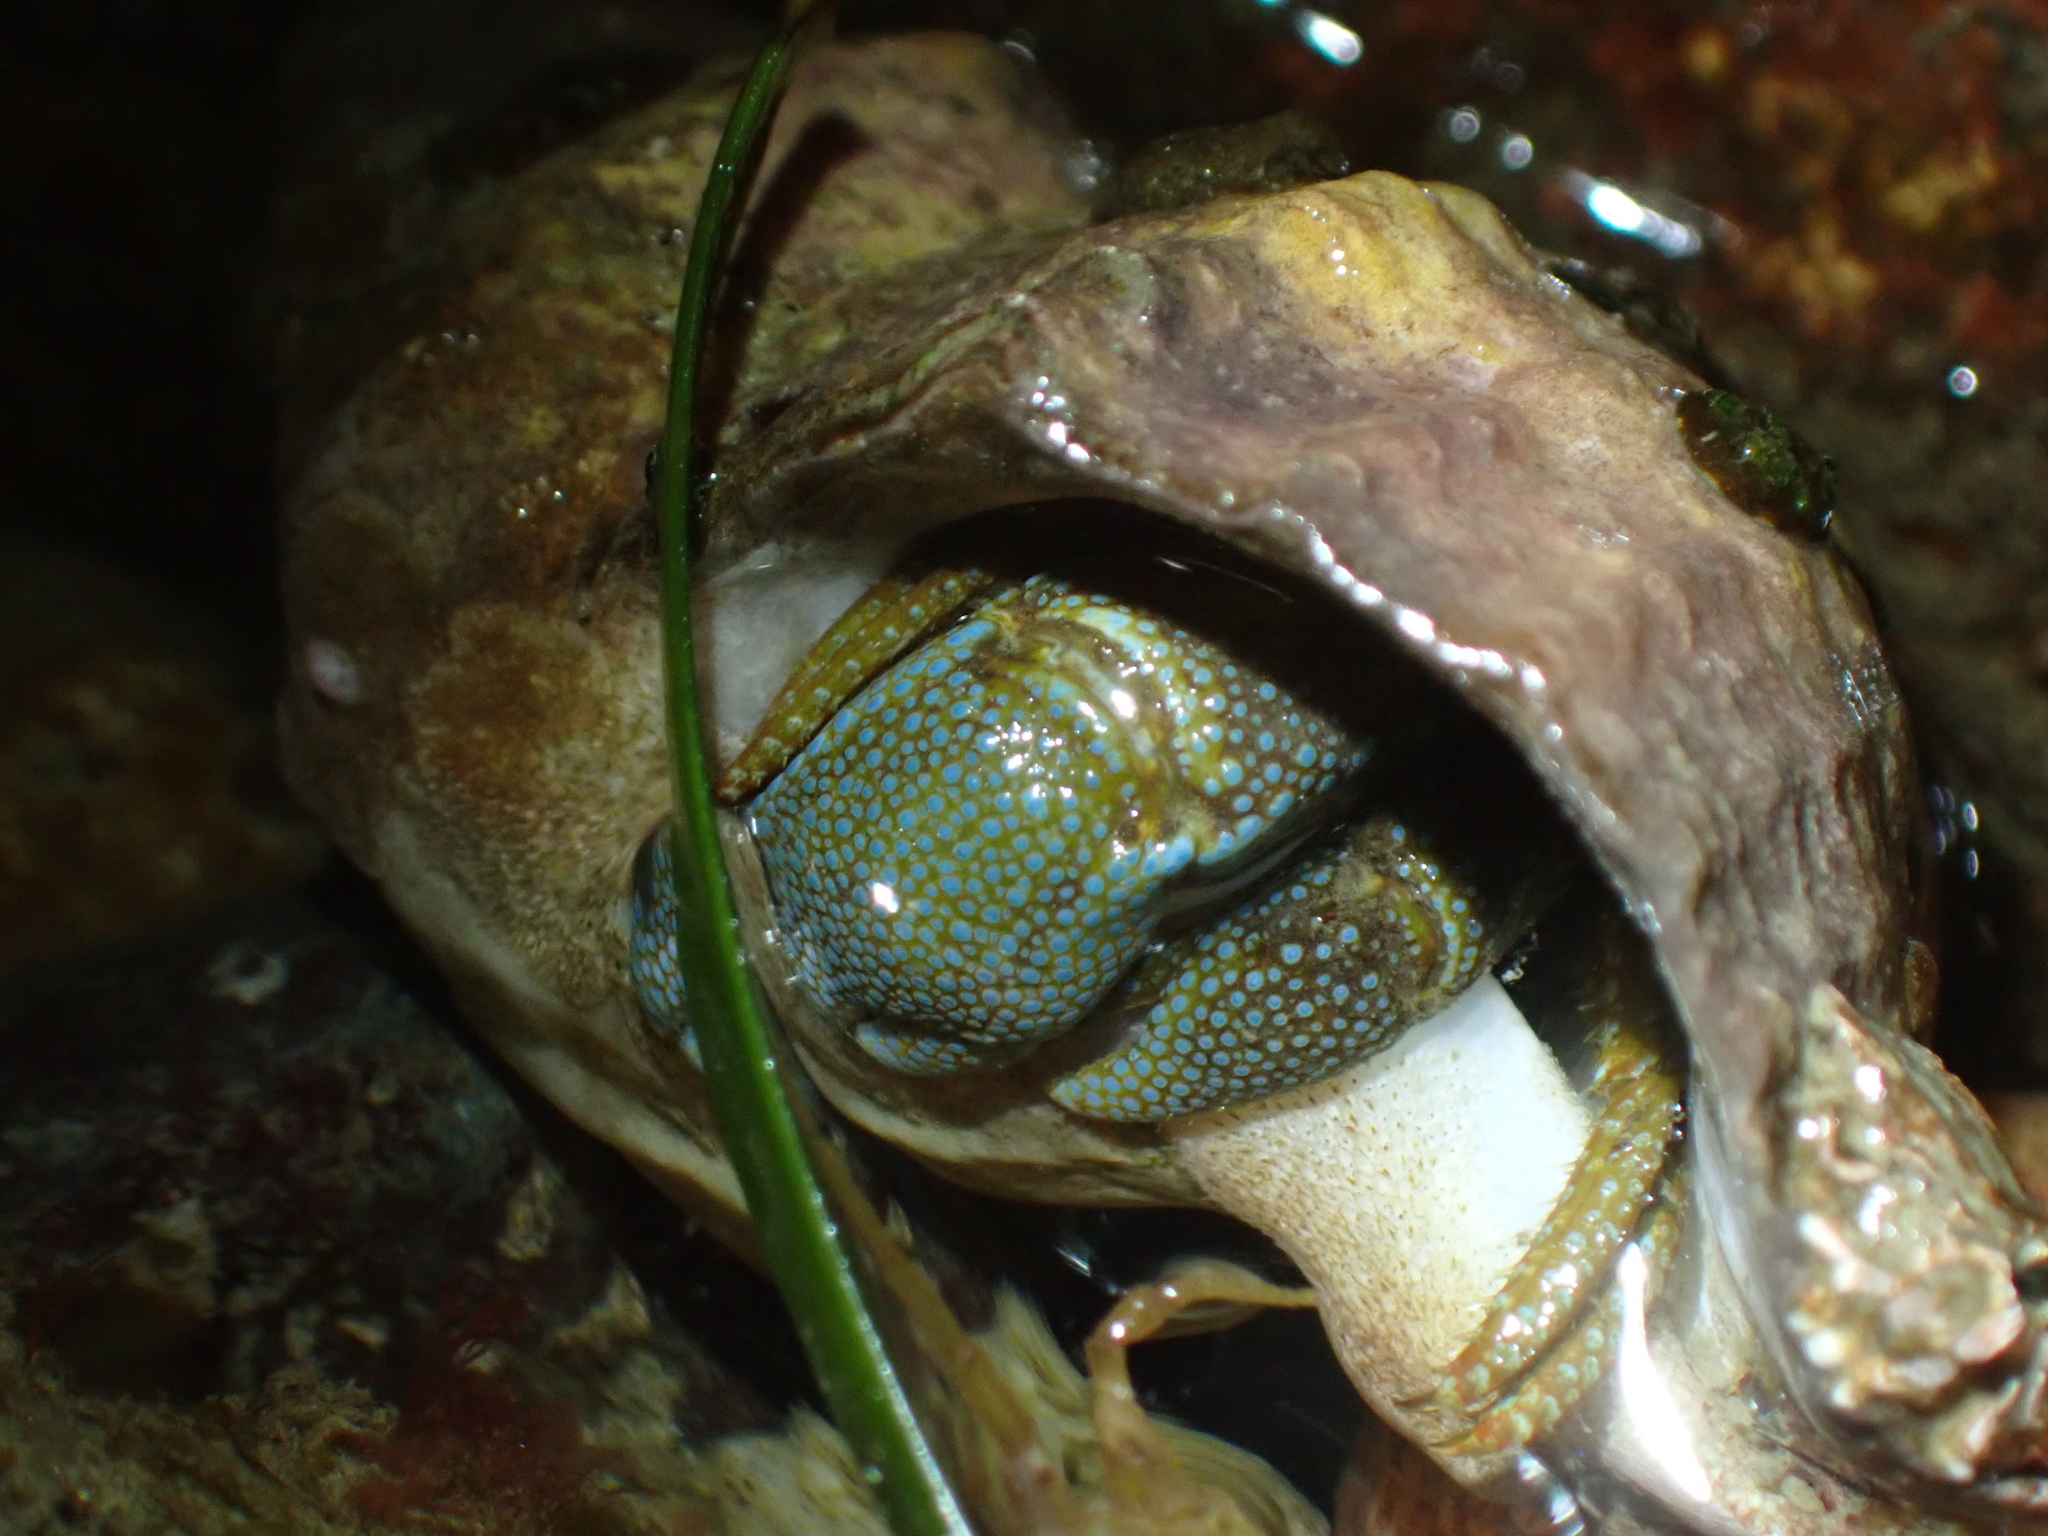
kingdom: Animalia
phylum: Arthropoda
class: Malacostraca
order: Decapoda
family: Paguridae
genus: Pagurus
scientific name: Pagurus granosimanus
